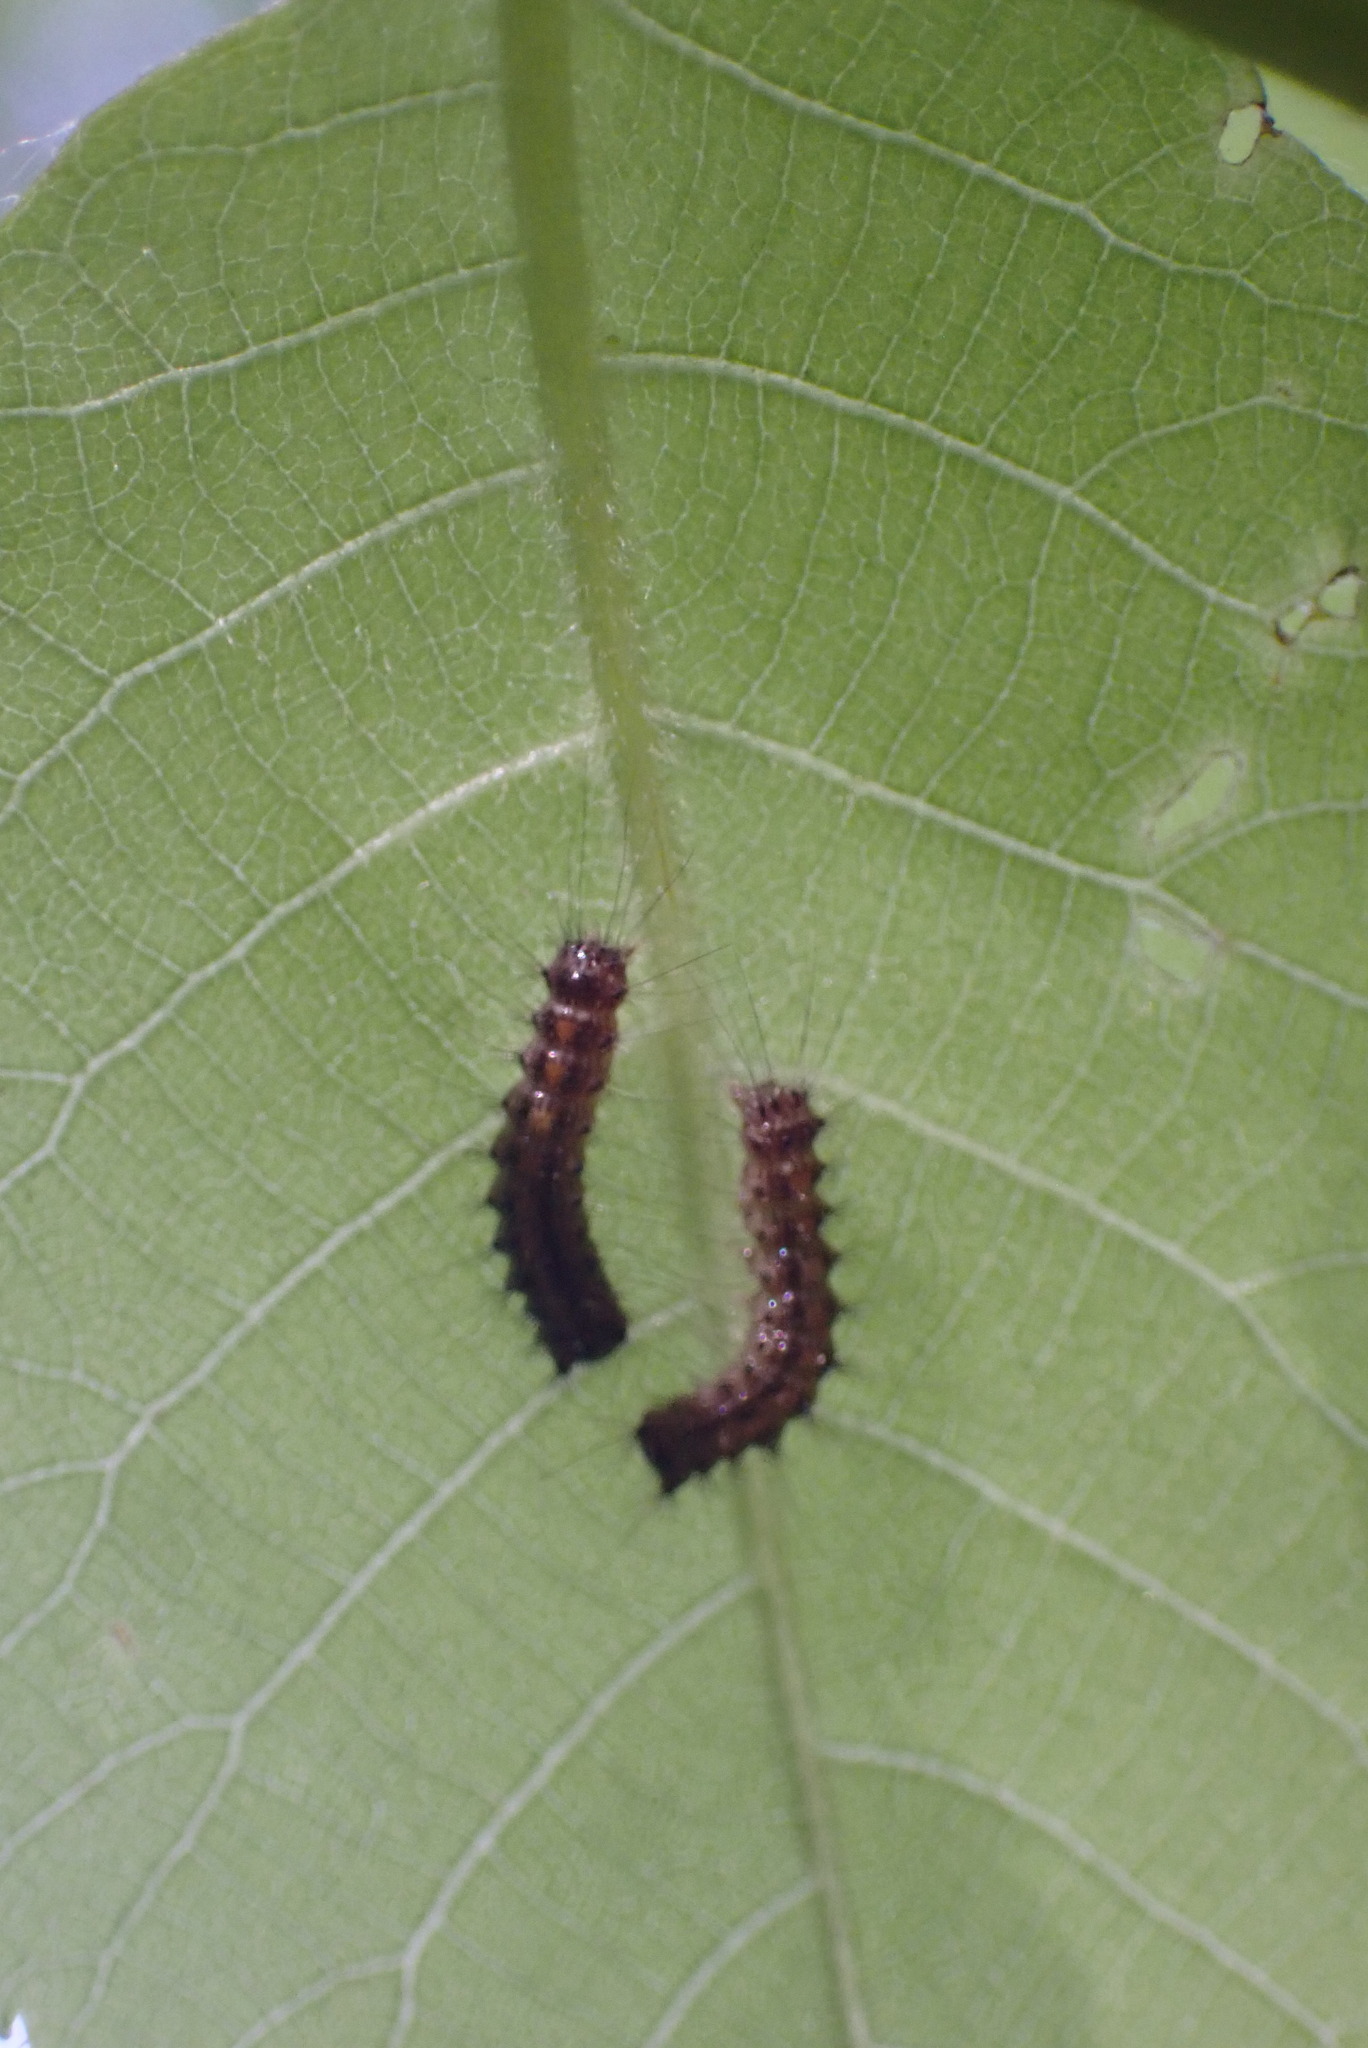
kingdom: Animalia
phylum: Arthropoda
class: Insecta
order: Lepidoptera
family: Erebidae
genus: Lymantria
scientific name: Lymantria dispar
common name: Gypsy moth
